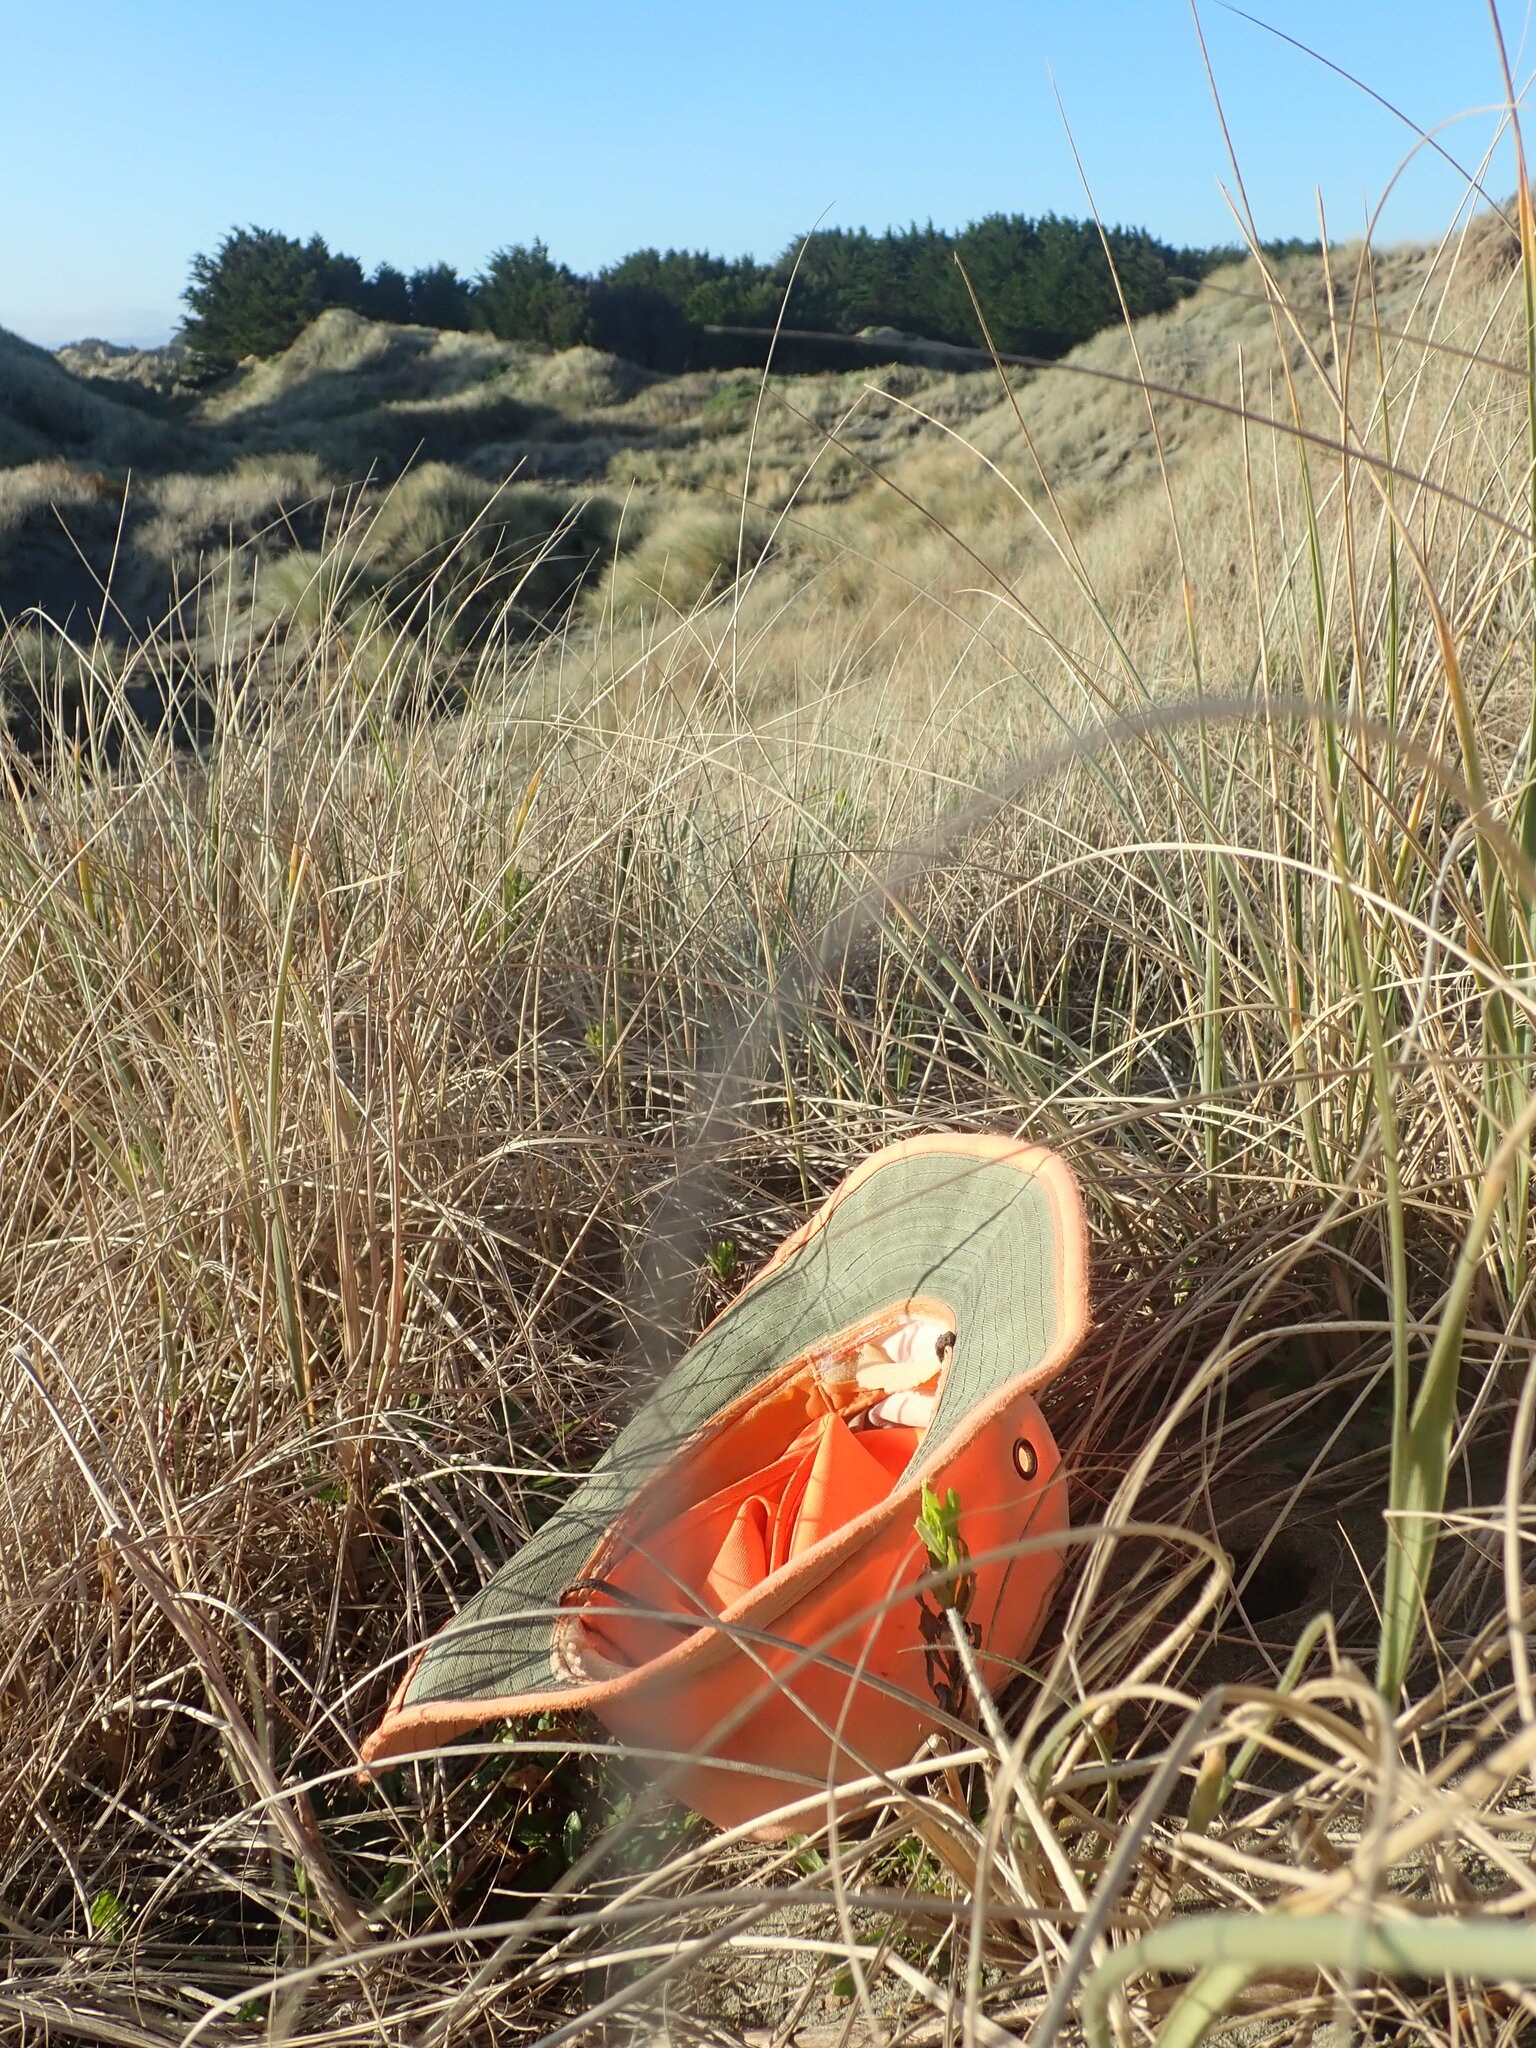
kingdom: Fungi
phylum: Basidiomycota
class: Agaricomycetes
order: Phallales
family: Phallaceae
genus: Ileodictyon
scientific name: Ileodictyon cibarium
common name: Basket fungus
